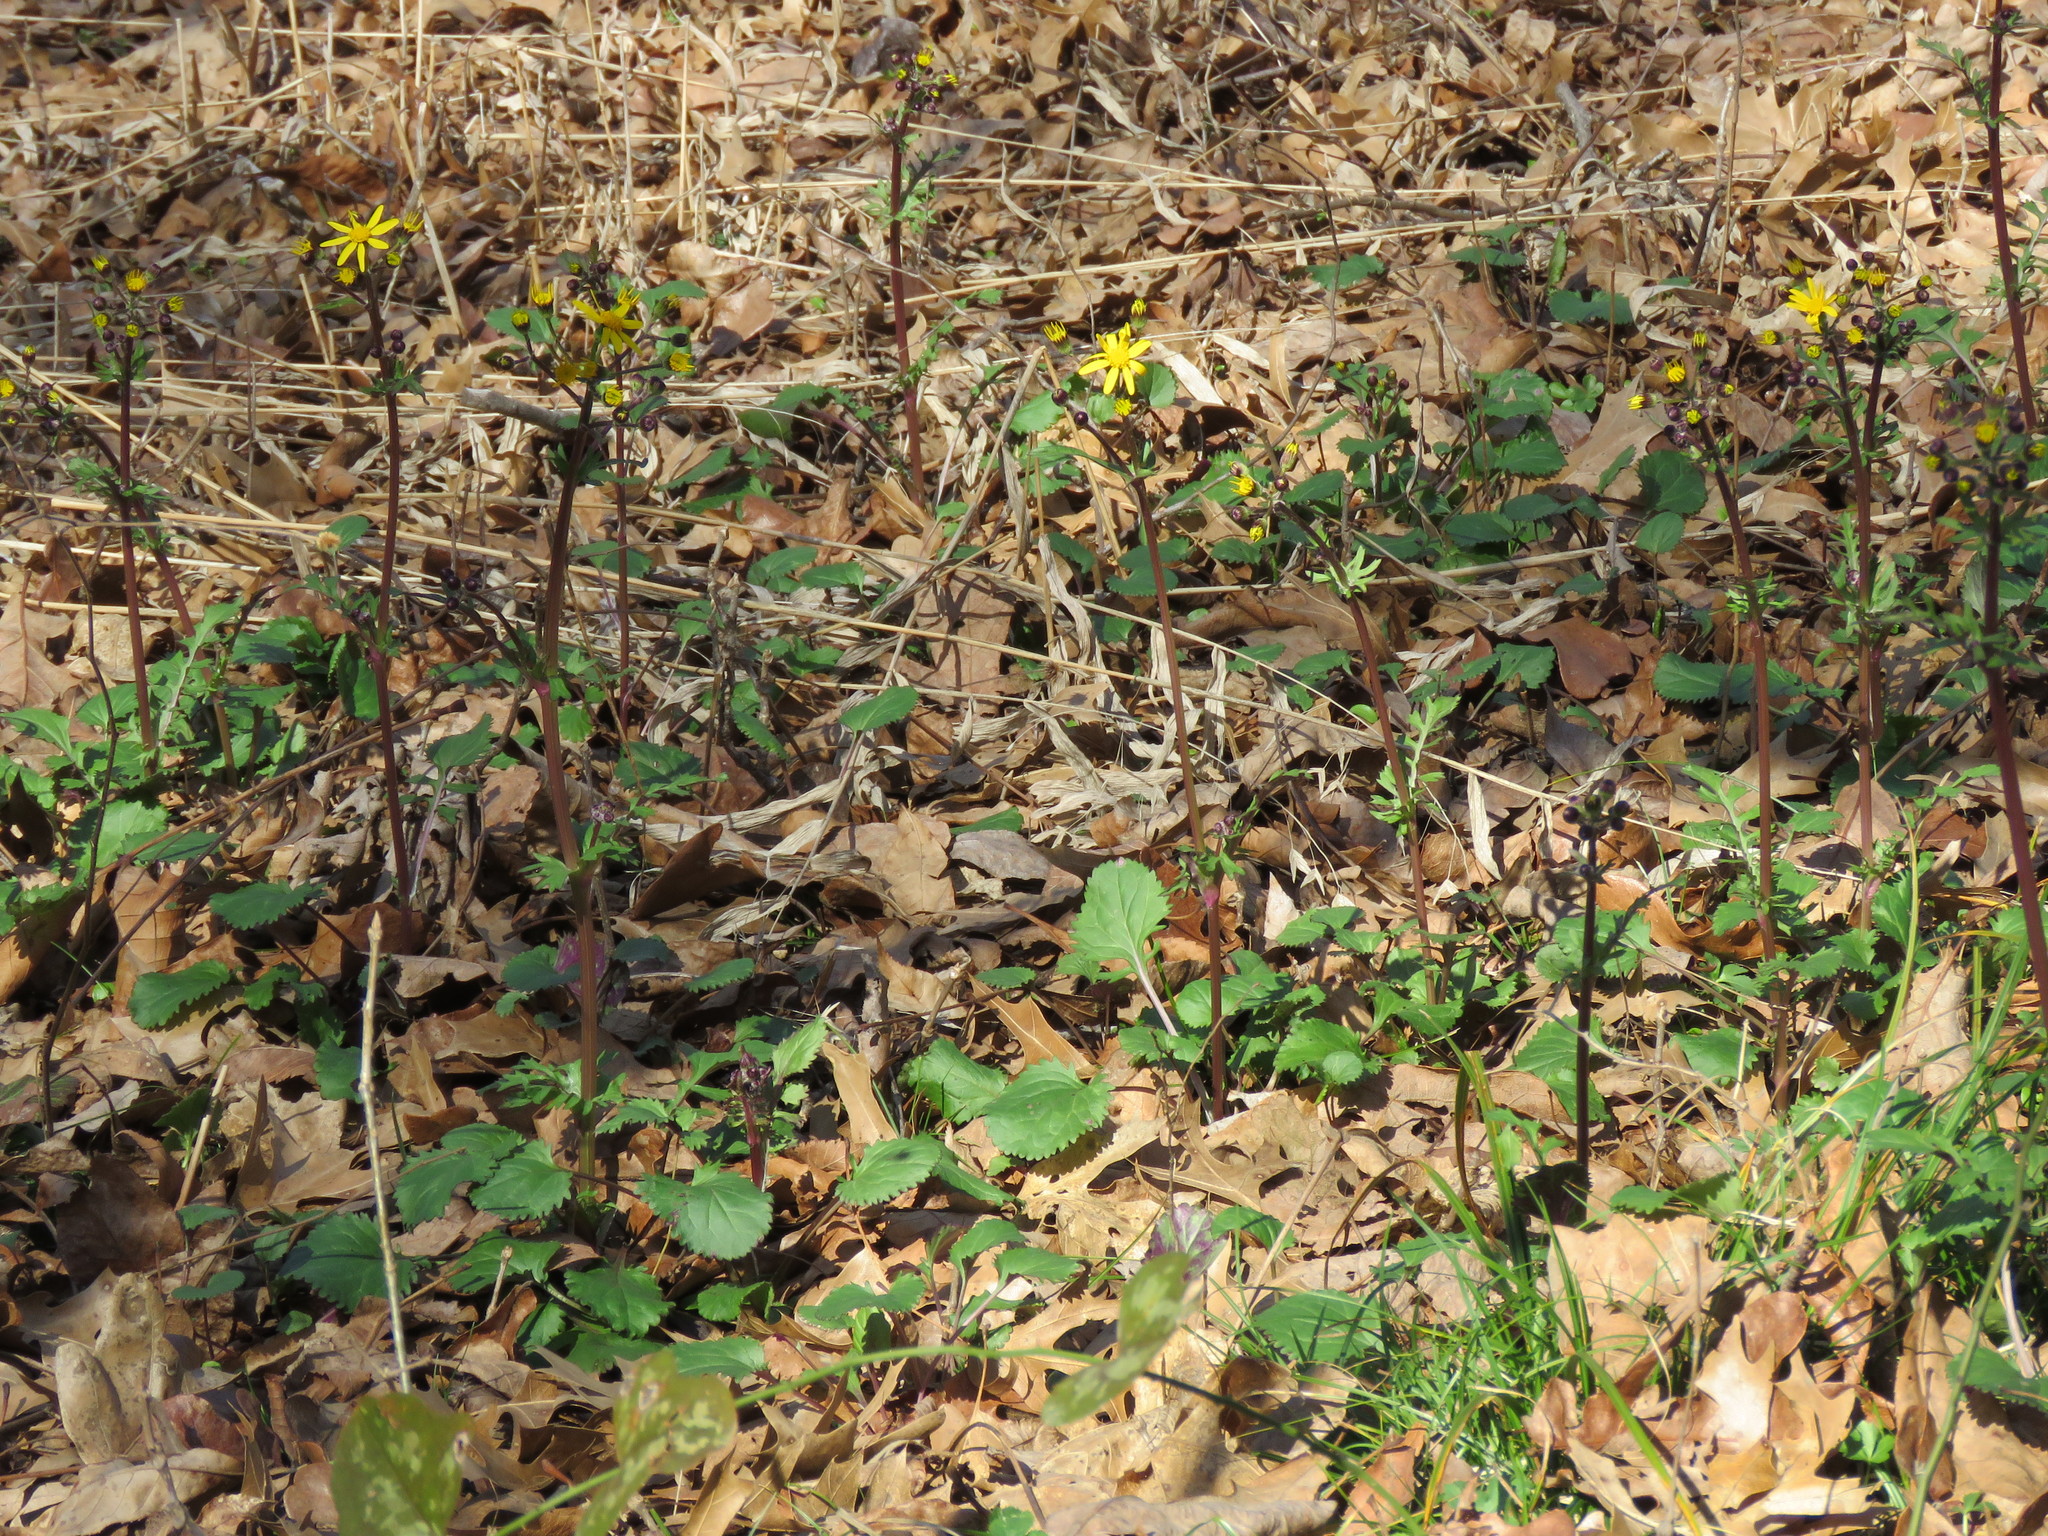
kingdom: Plantae
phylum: Tracheophyta
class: Magnoliopsida
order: Asterales
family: Asteraceae
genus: Packera
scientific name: Packera obovata
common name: Round-leaf ragwort
